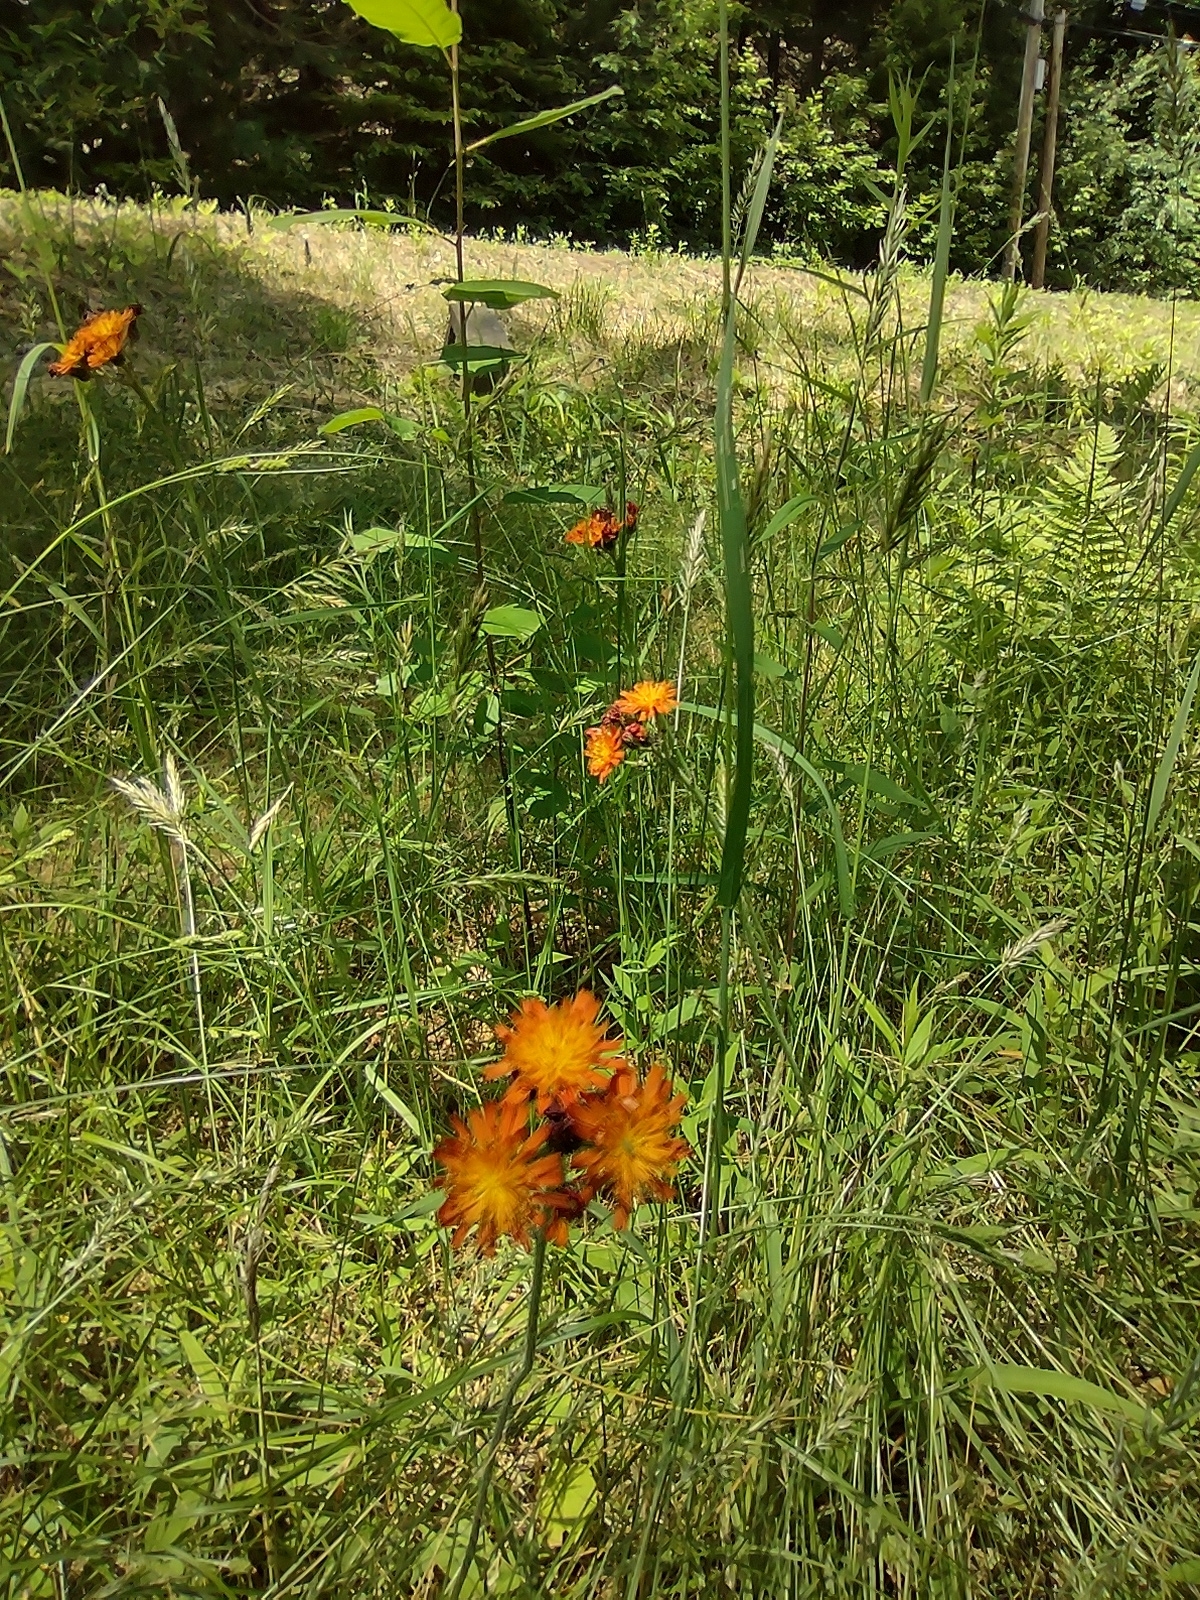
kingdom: Plantae
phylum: Tracheophyta
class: Magnoliopsida
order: Asterales
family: Asteraceae
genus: Pilosella
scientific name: Pilosella aurantiaca
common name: Fox-and-cubs
